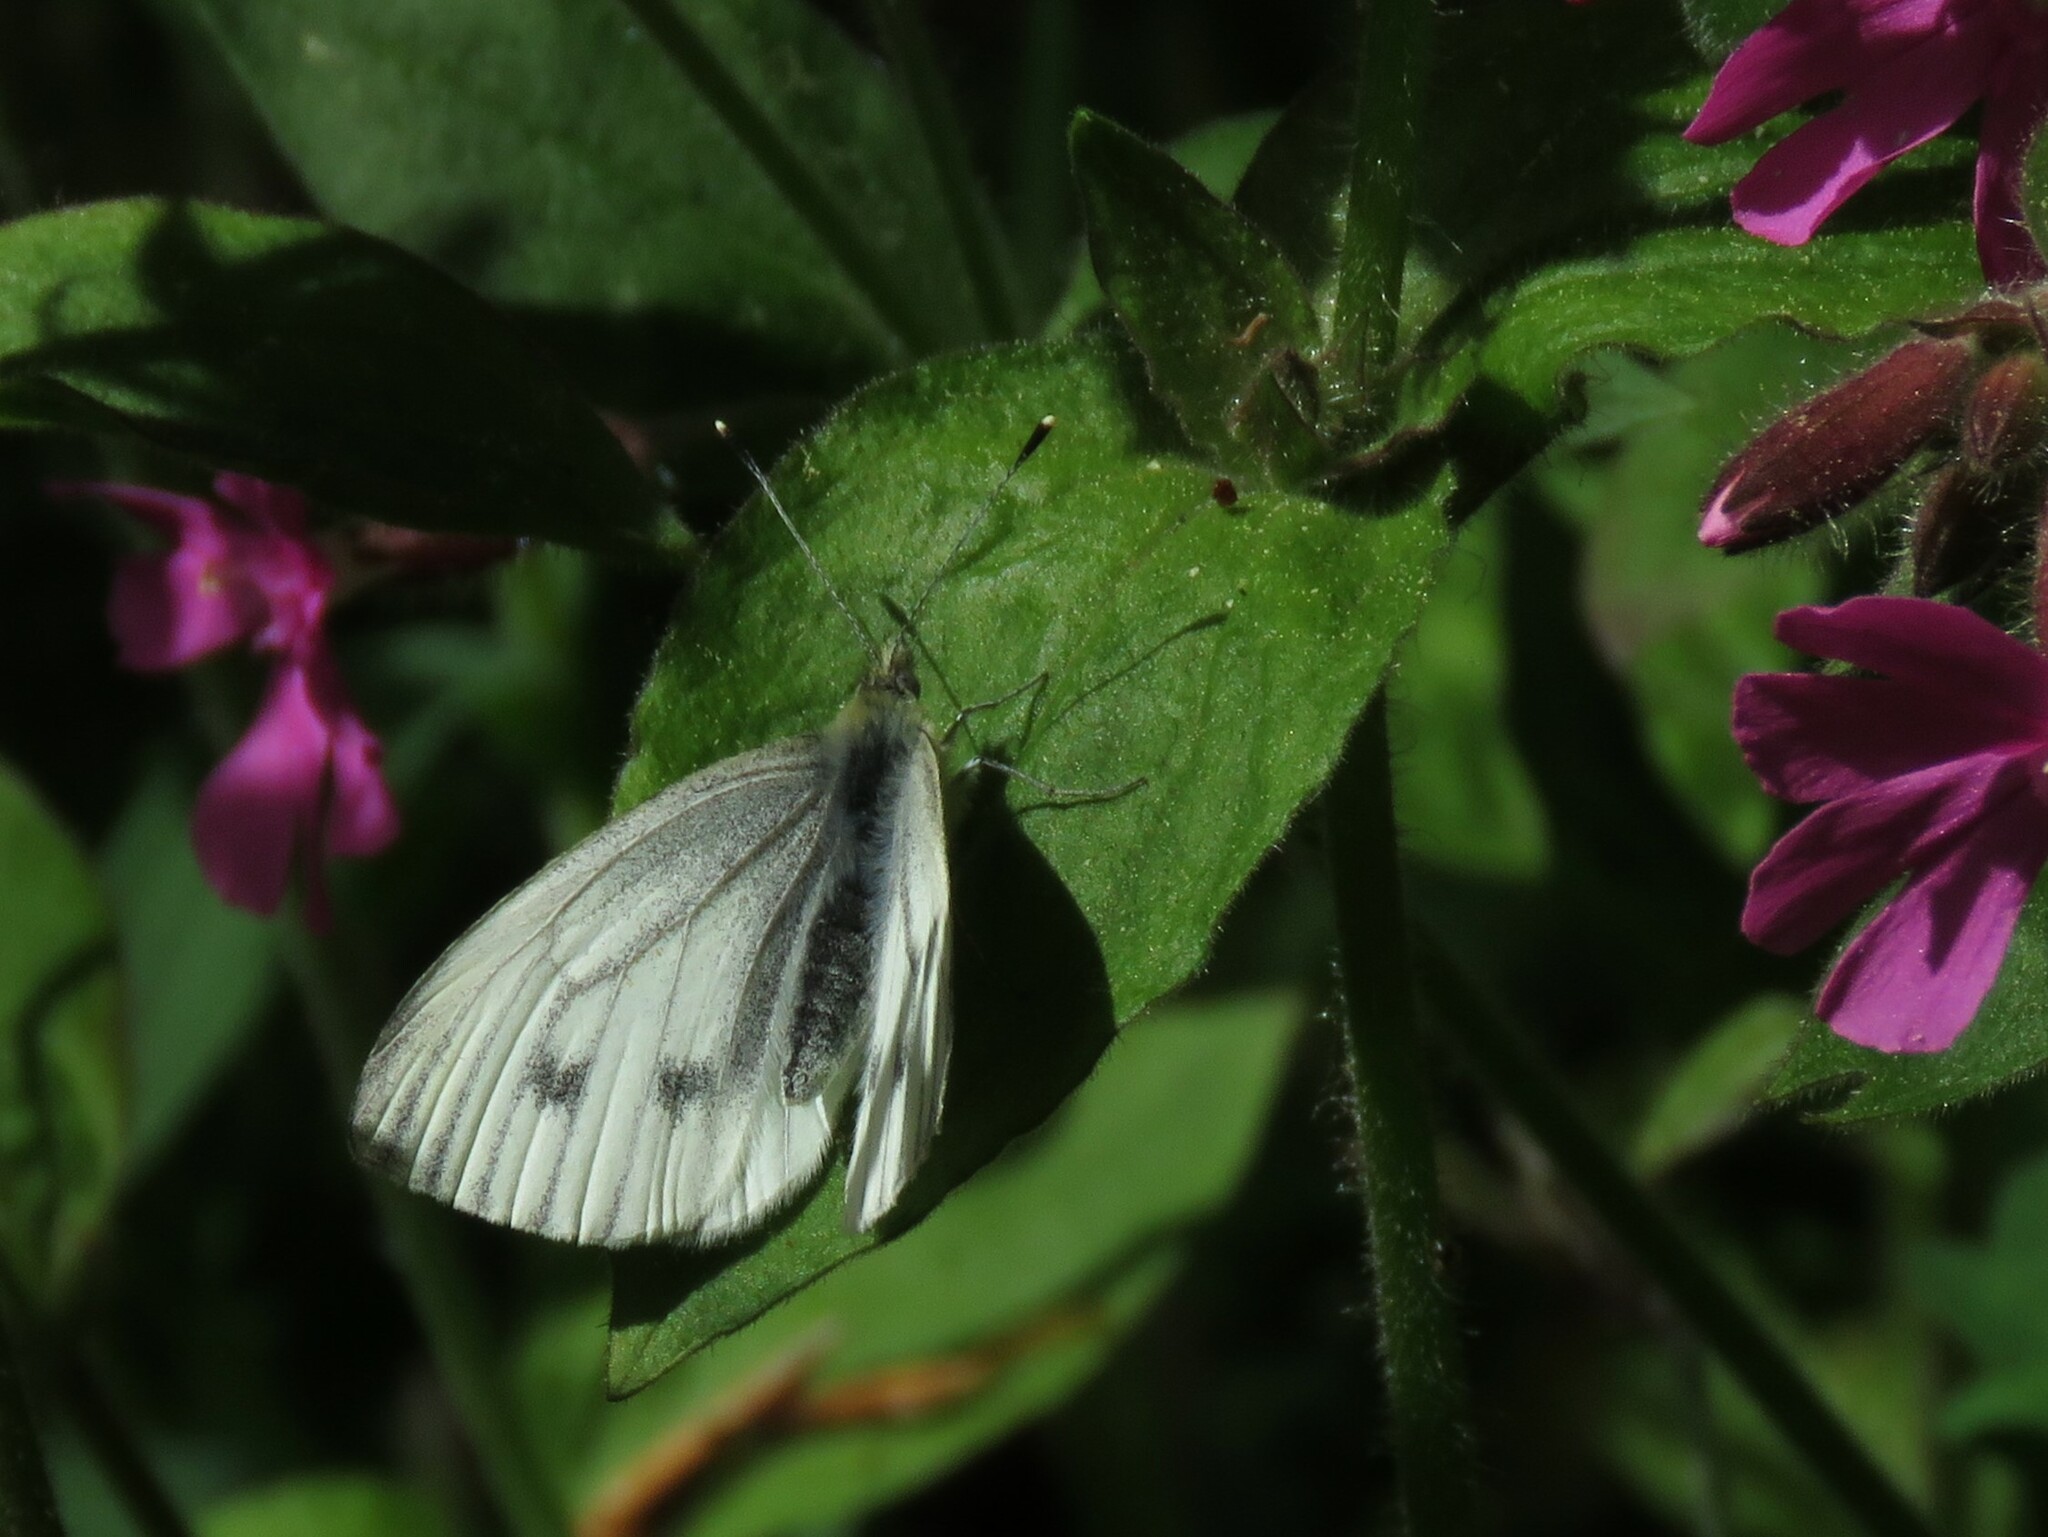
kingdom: Animalia
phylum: Arthropoda
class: Insecta
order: Lepidoptera
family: Pieridae
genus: Pieris
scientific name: Pieris napi
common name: Green-veined white
